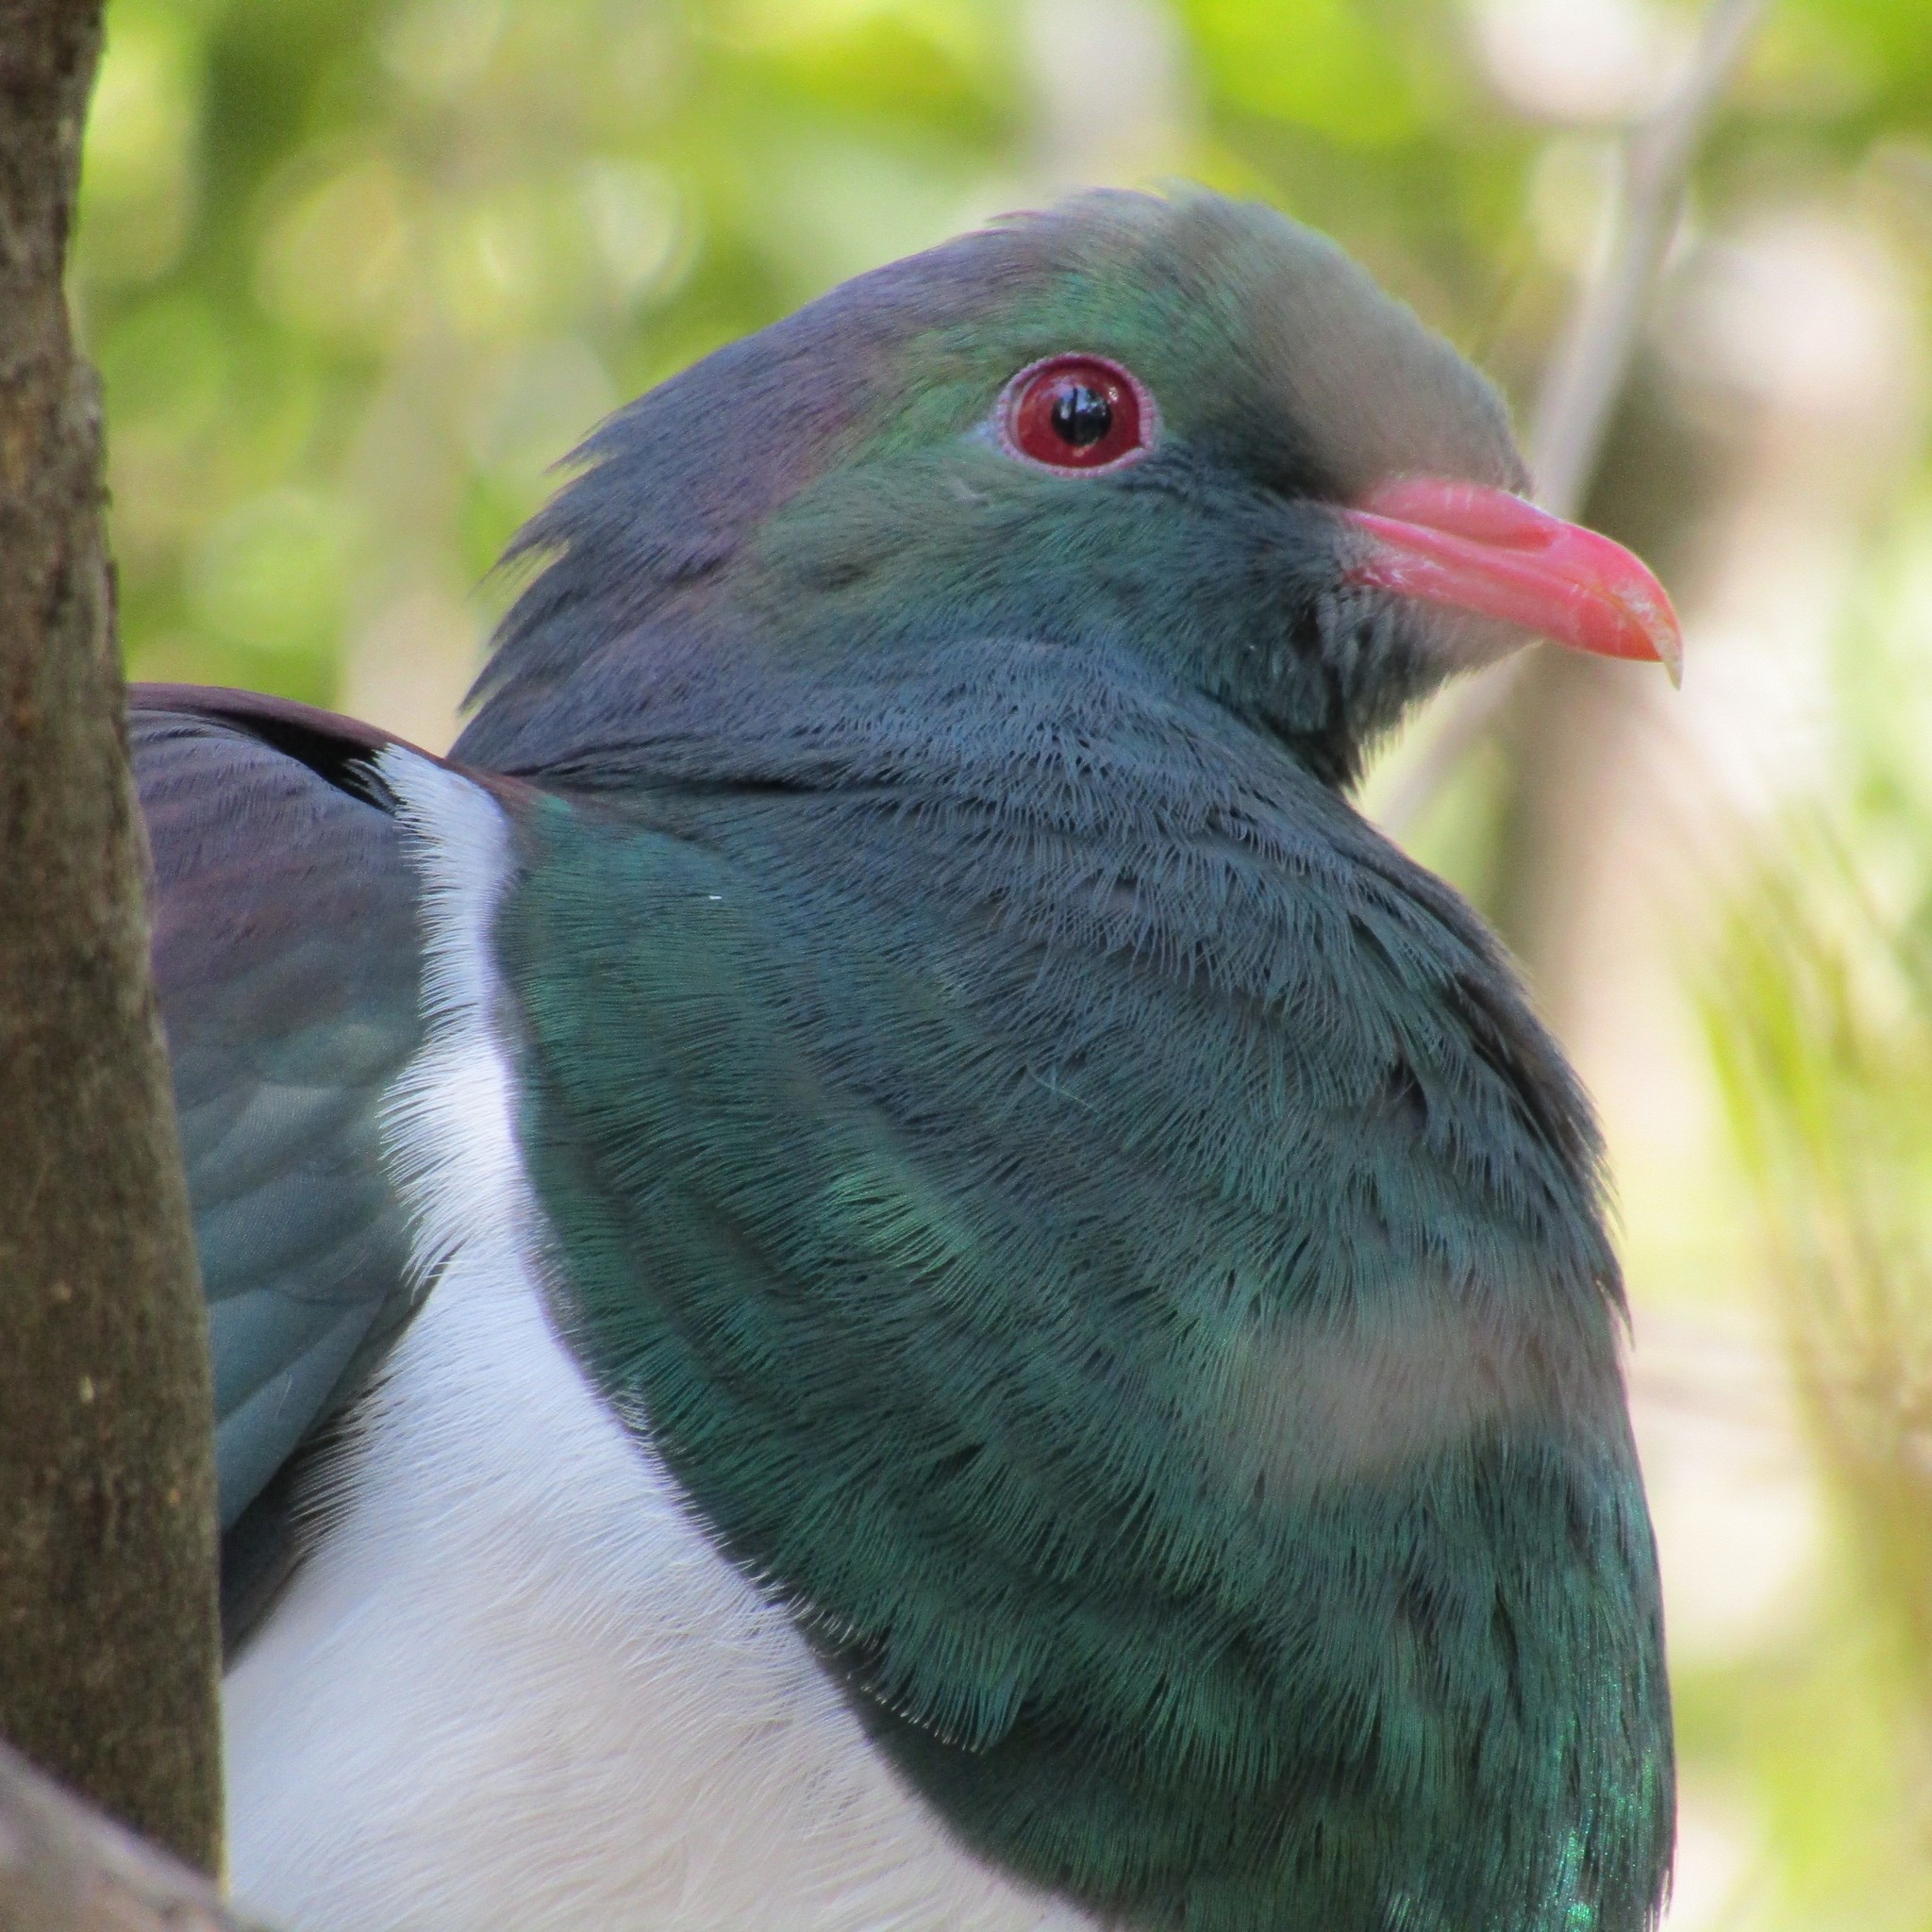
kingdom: Animalia
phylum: Chordata
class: Aves
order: Columbiformes
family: Columbidae
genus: Hemiphaga
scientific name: Hemiphaga novaeseelandiae
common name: New zealand pigeon
